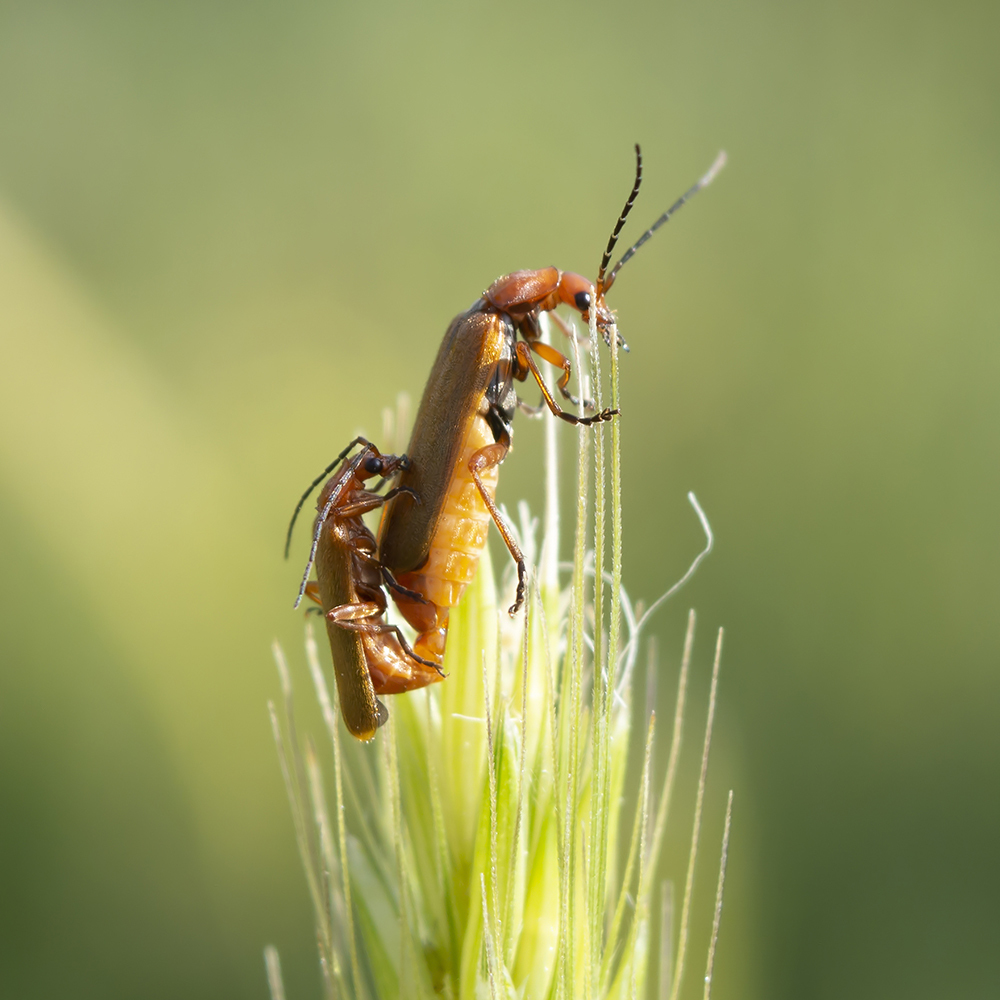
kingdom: Animalia
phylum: Arthropoda
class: Insecta
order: Coleoptera
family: Cantharidae
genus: Rhagonycha
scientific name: Rhagonycha nigritarsis
